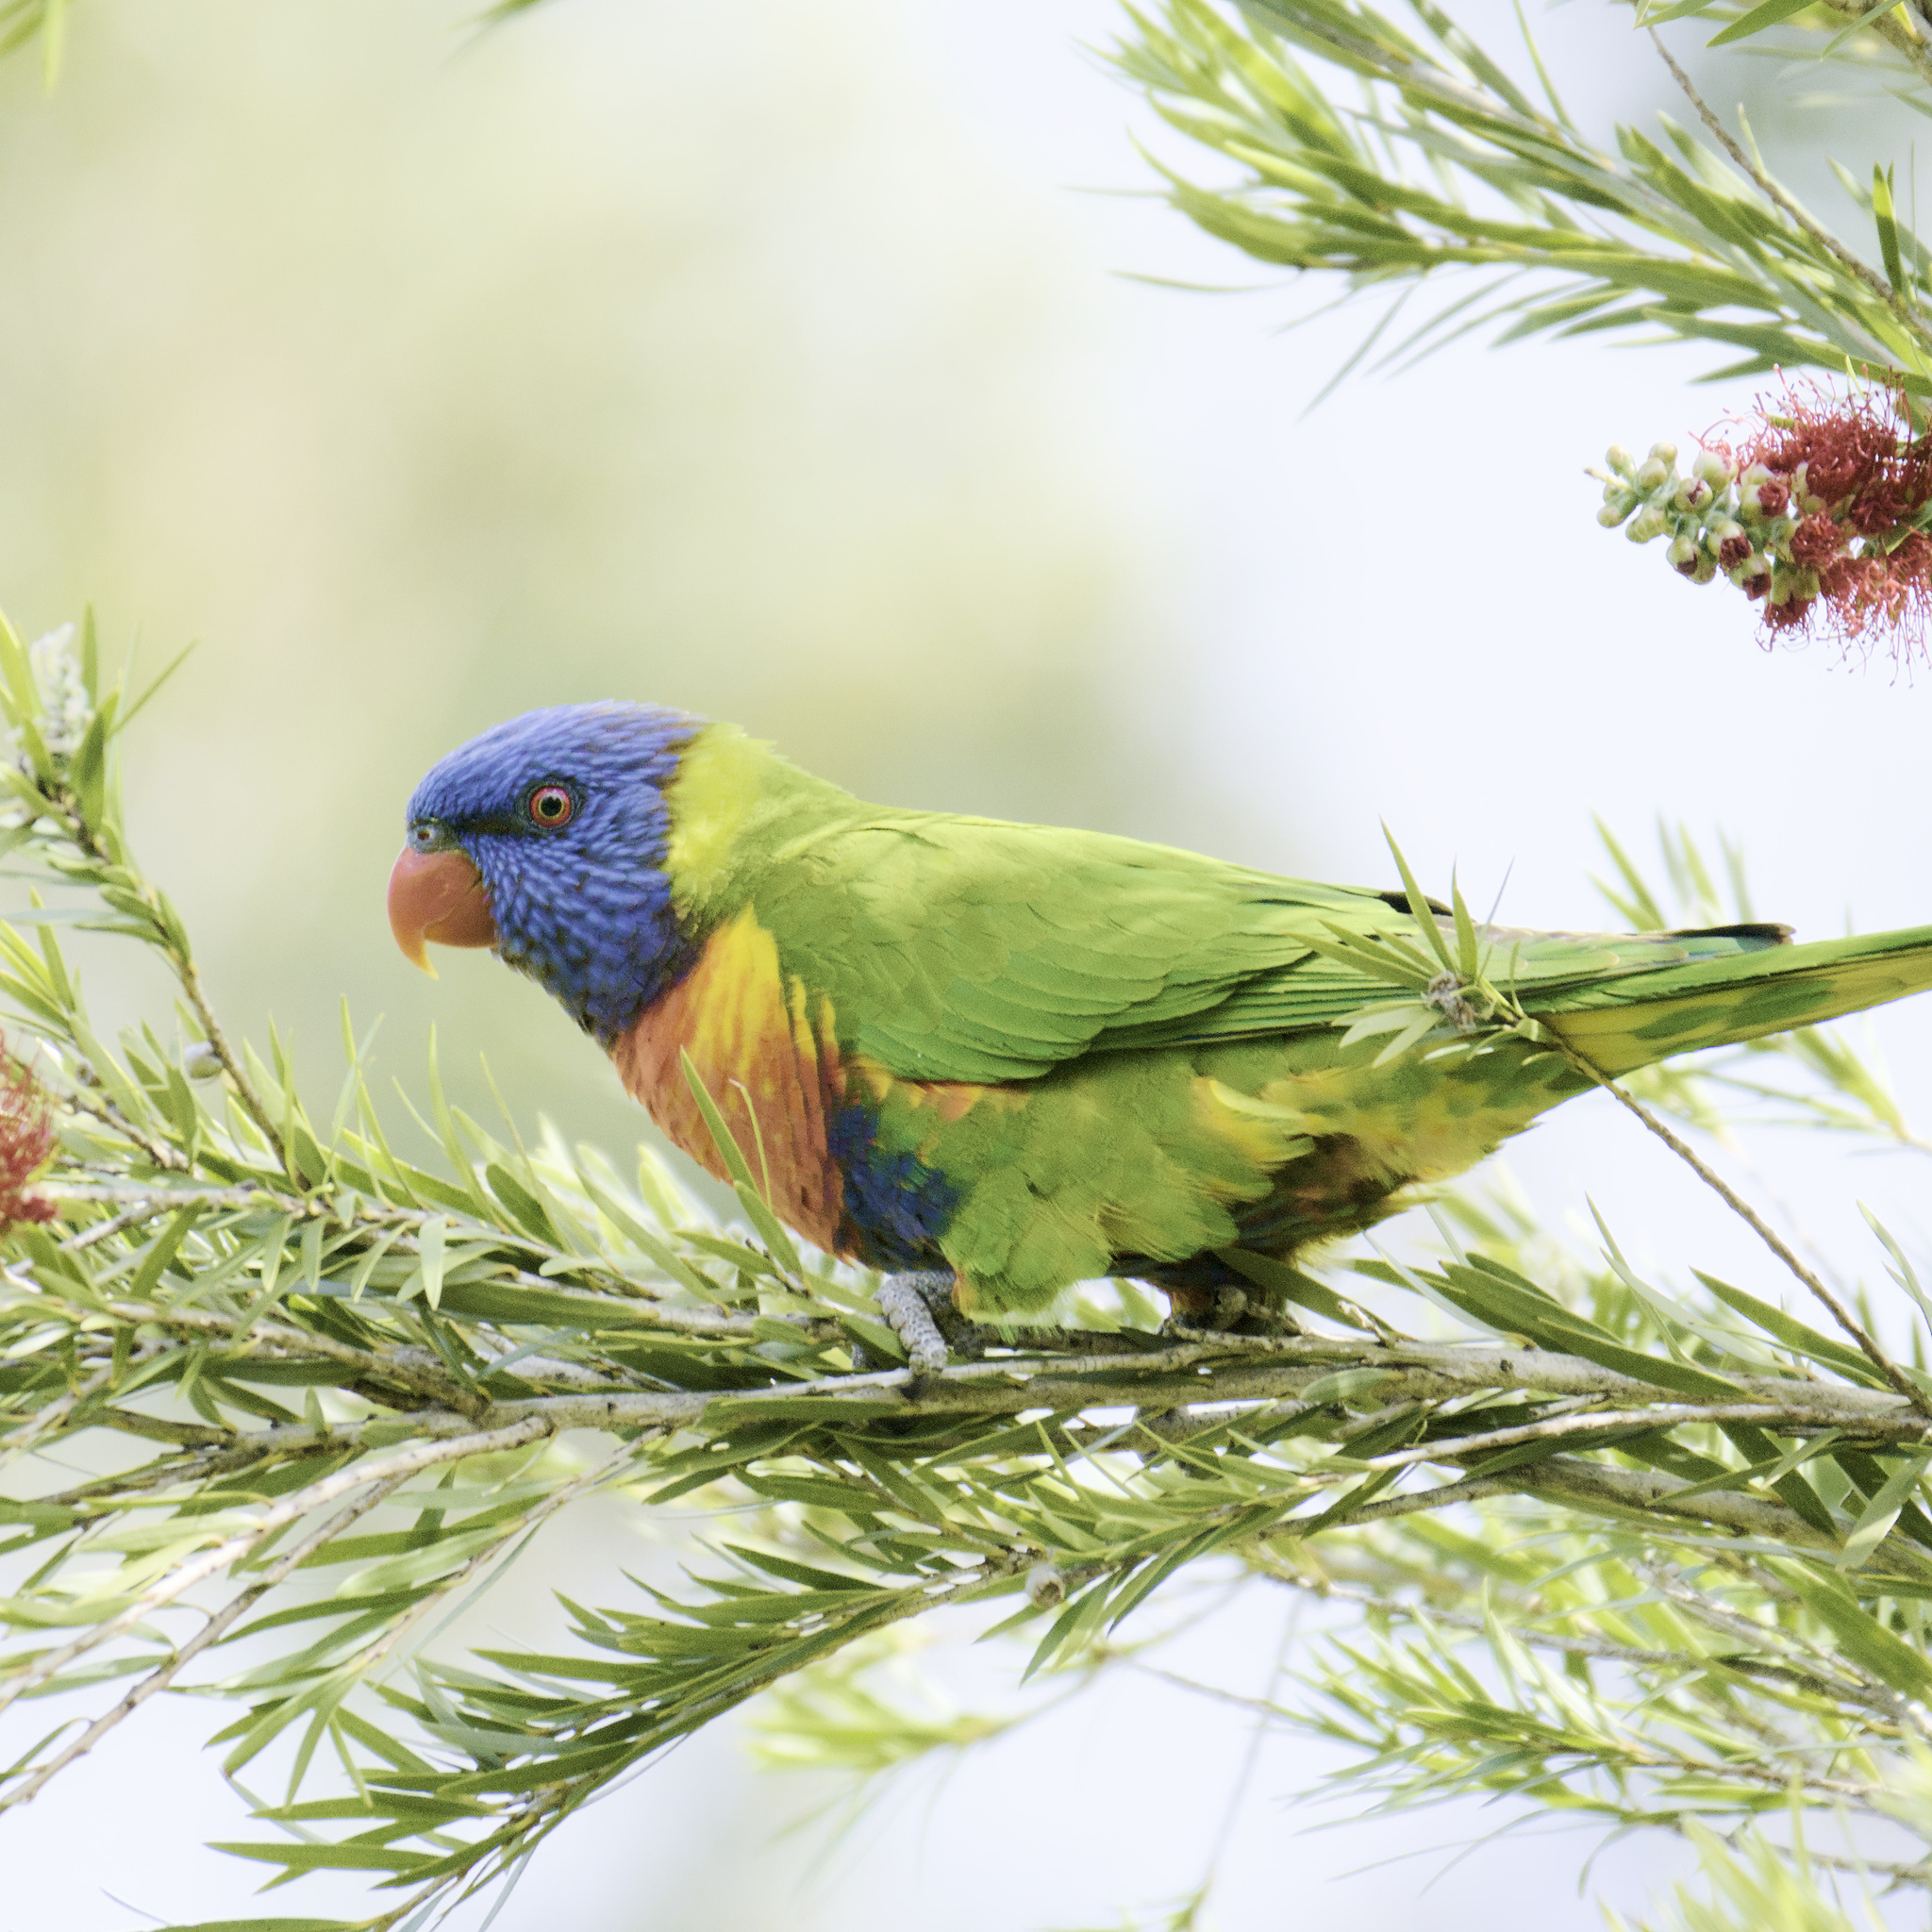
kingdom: Animalia
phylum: Chordata
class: Aves
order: Psittaciformes
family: Psittacidae
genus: Trichoglossus
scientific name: Trichoglossus haematodus
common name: Coconut lorikeet
